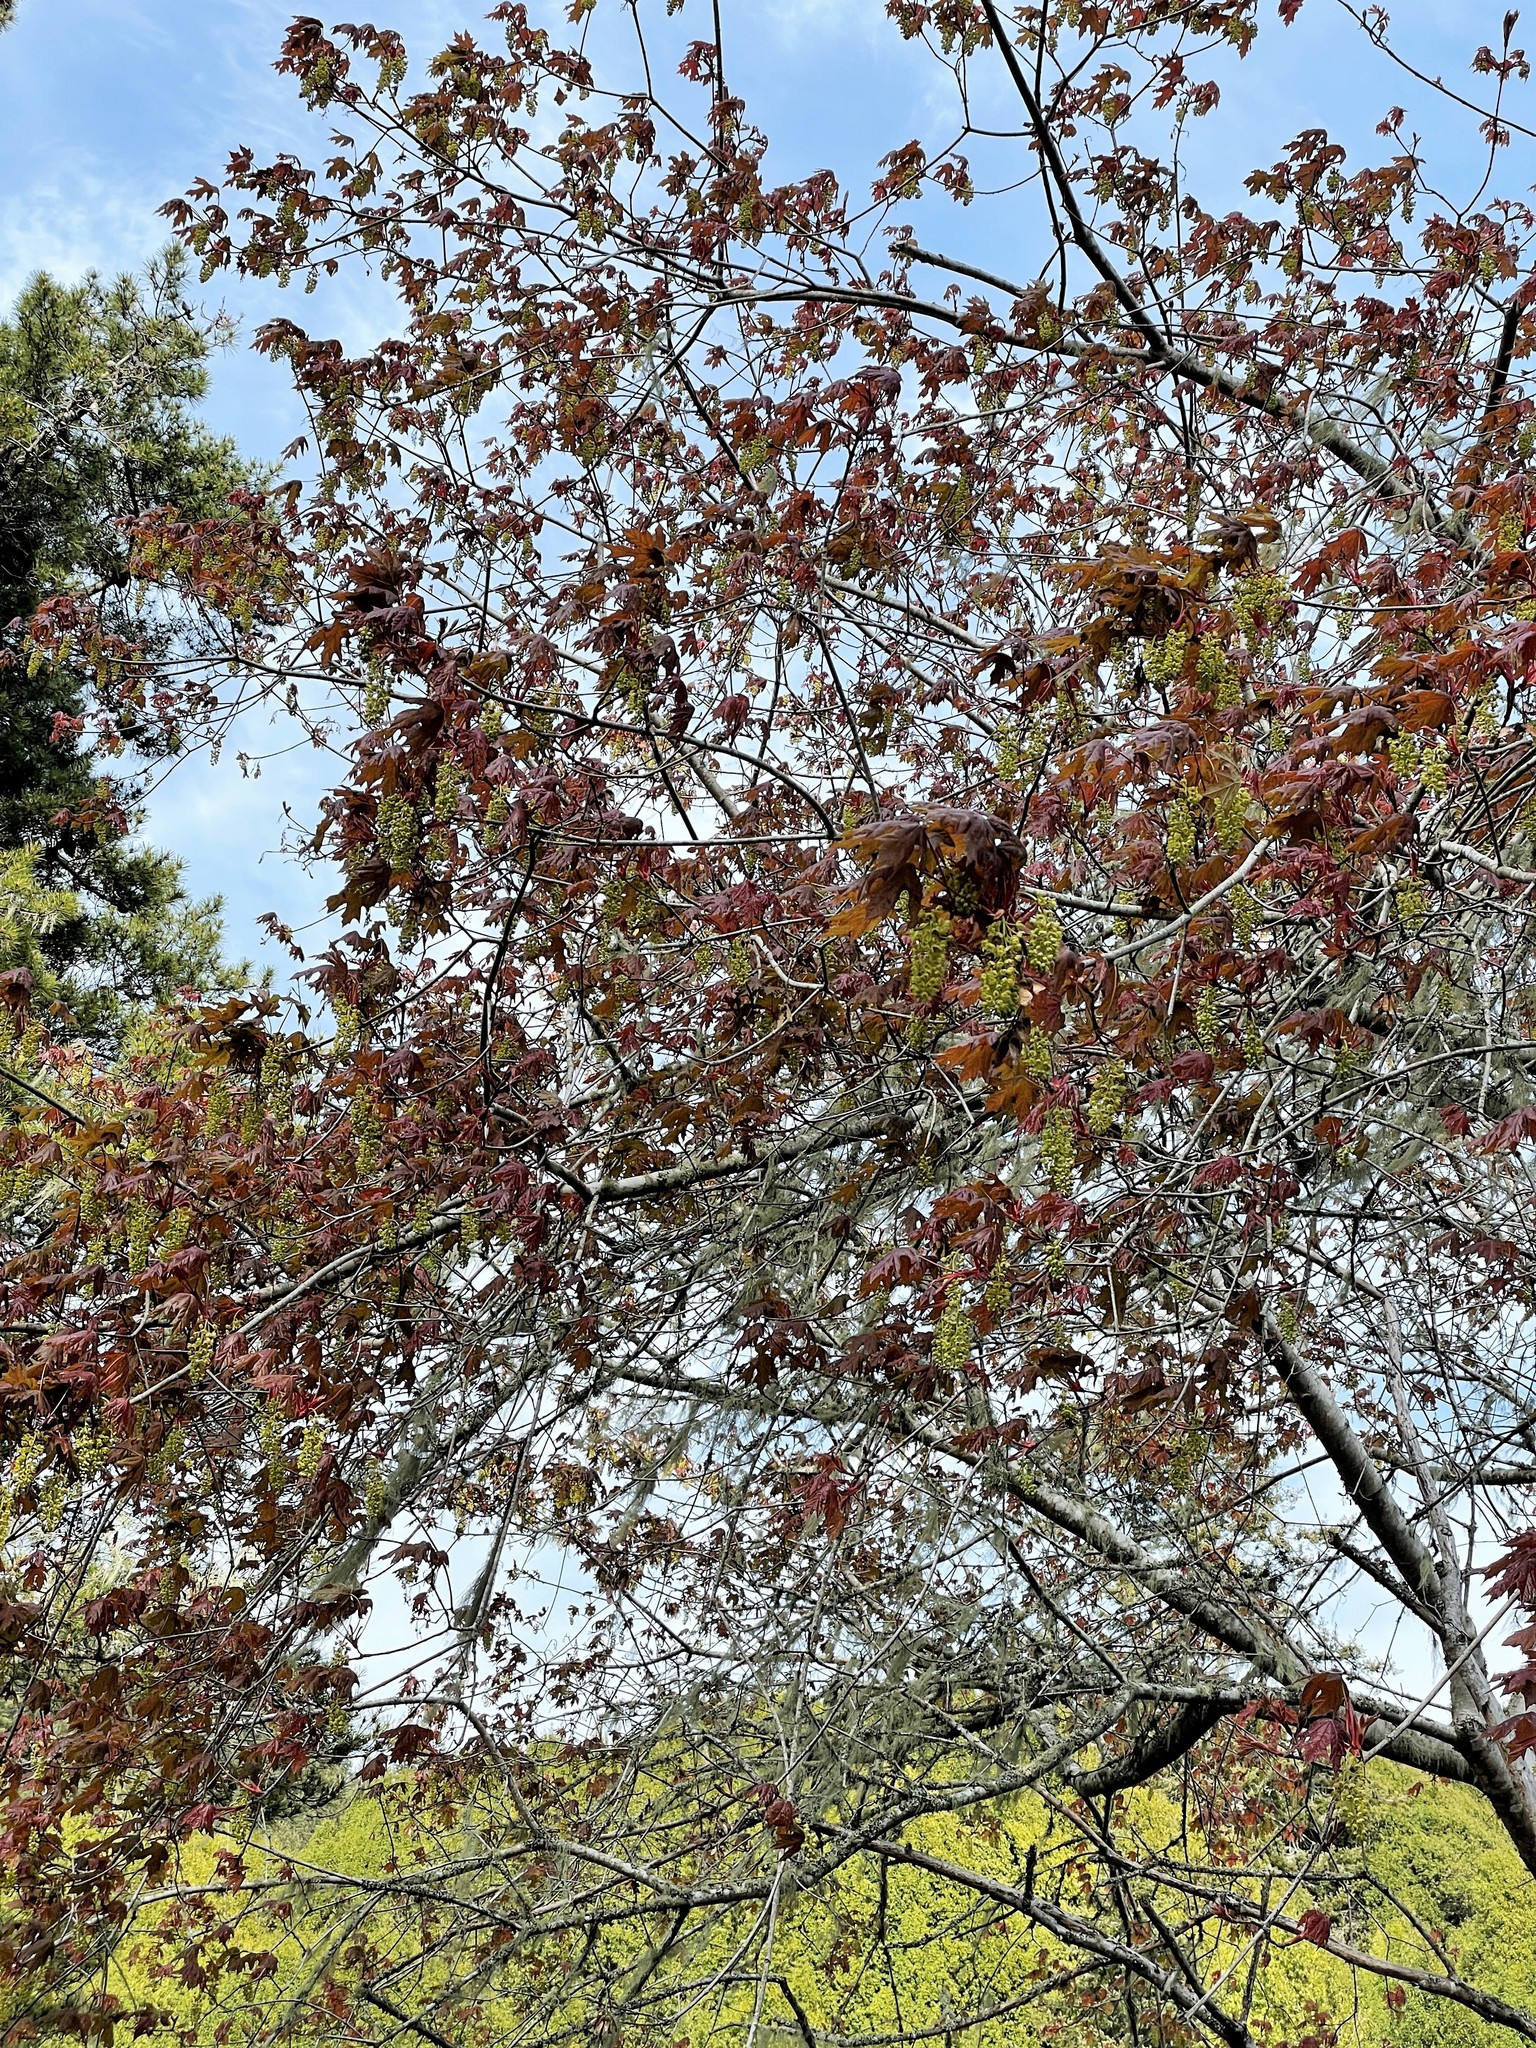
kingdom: Plantae
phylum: Tracheophyta
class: Magnoliopsida
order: Sapindales
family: Sapindaceae
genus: Acer
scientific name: Acer macrophyllum
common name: Oregon maple
